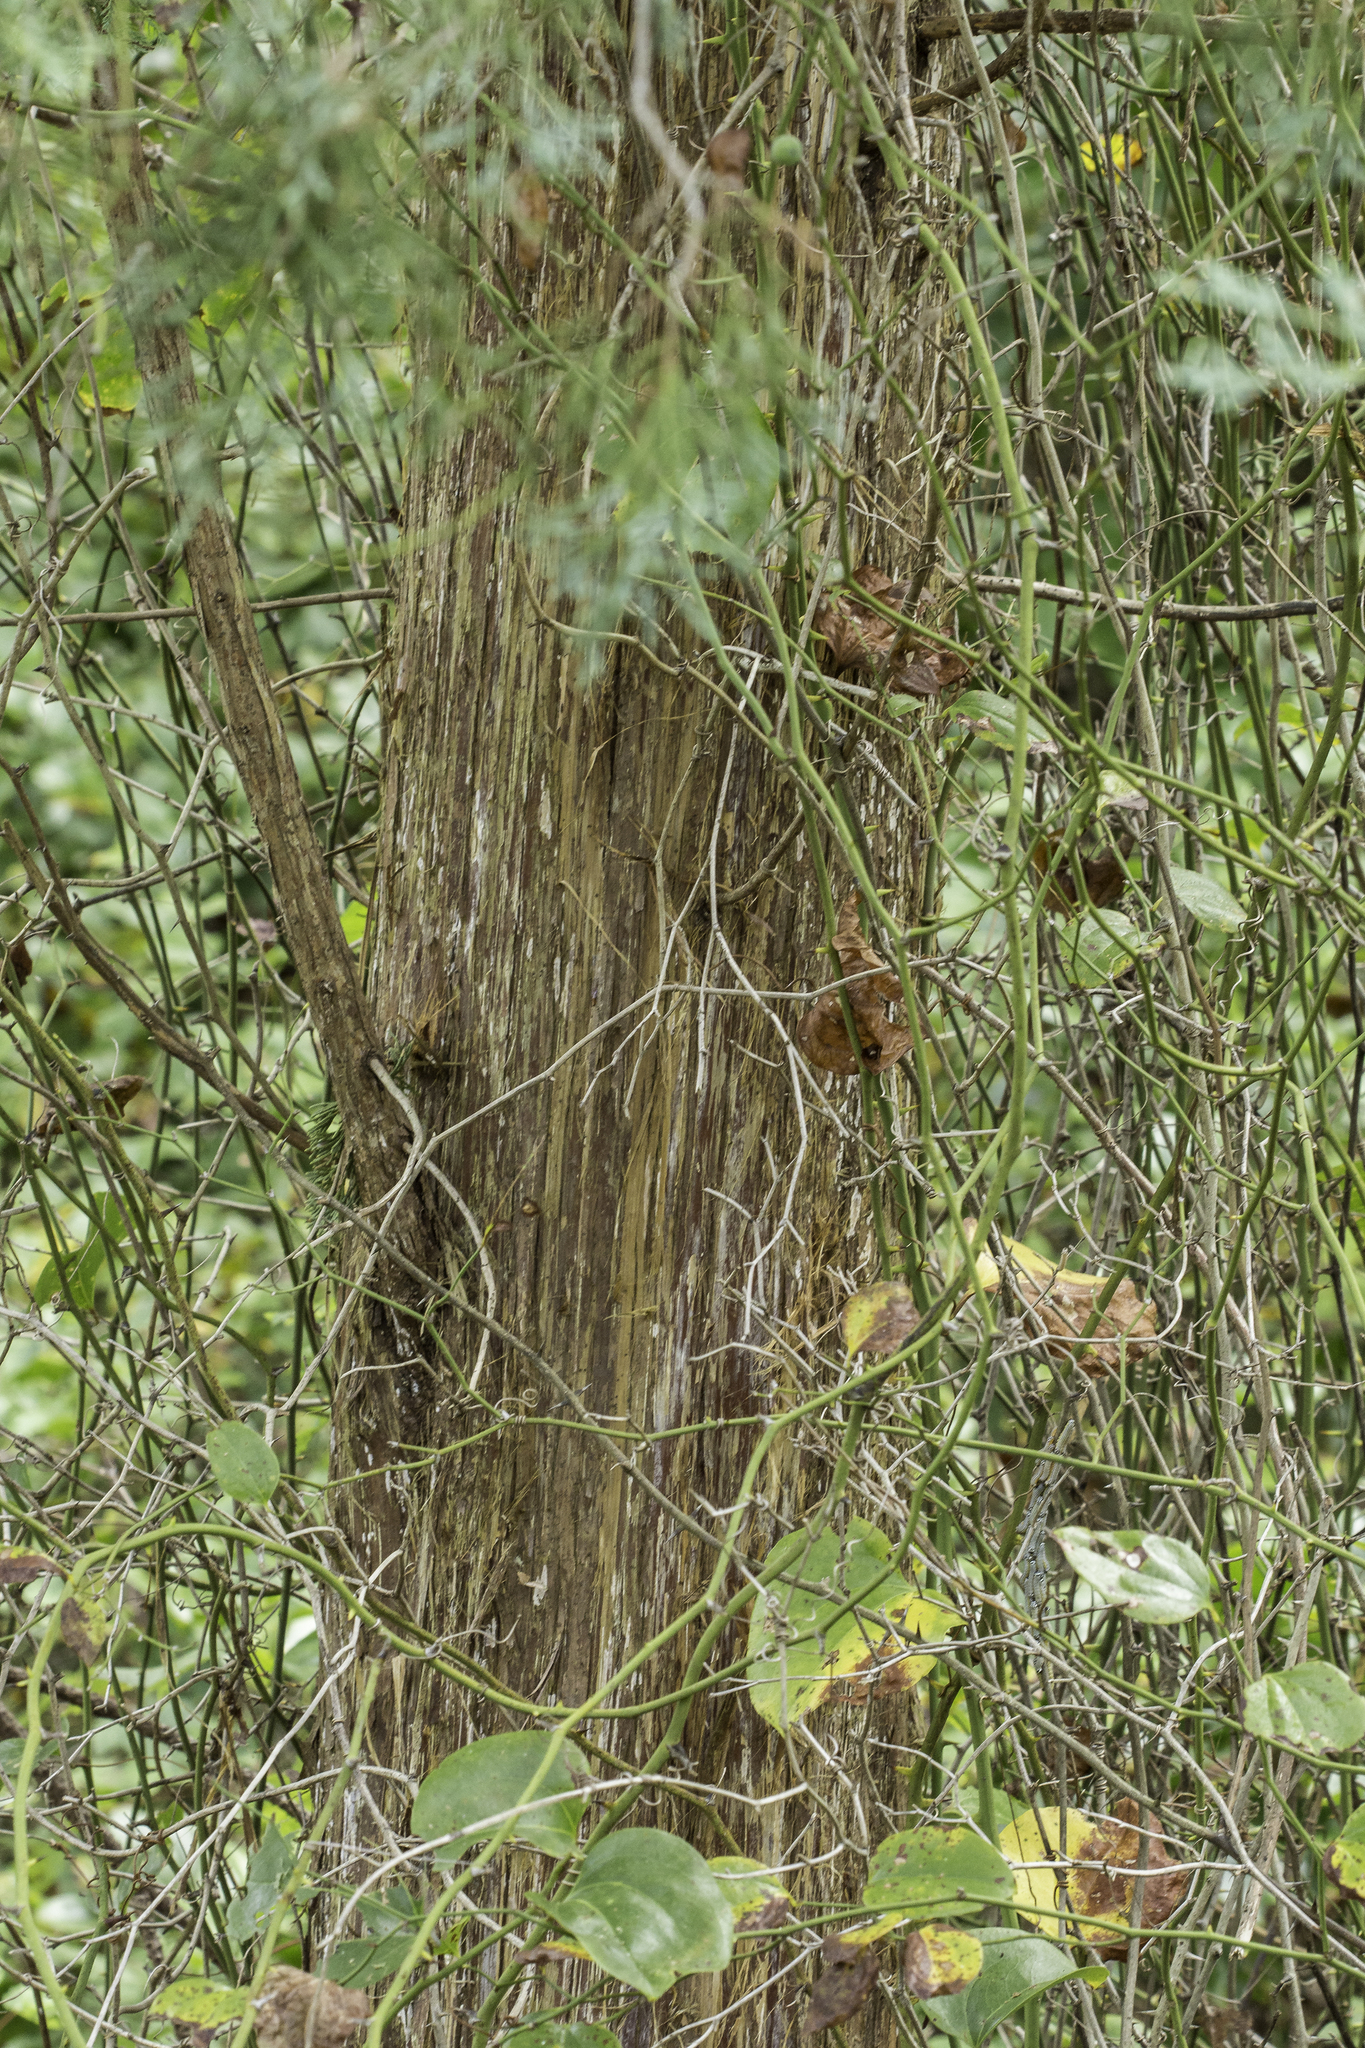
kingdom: Plantae
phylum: Tracheophyta
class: Pinopsida
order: Pinales
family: Cupressaceae
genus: Juniperus
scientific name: Juniperus virginiana
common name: Red juniper
